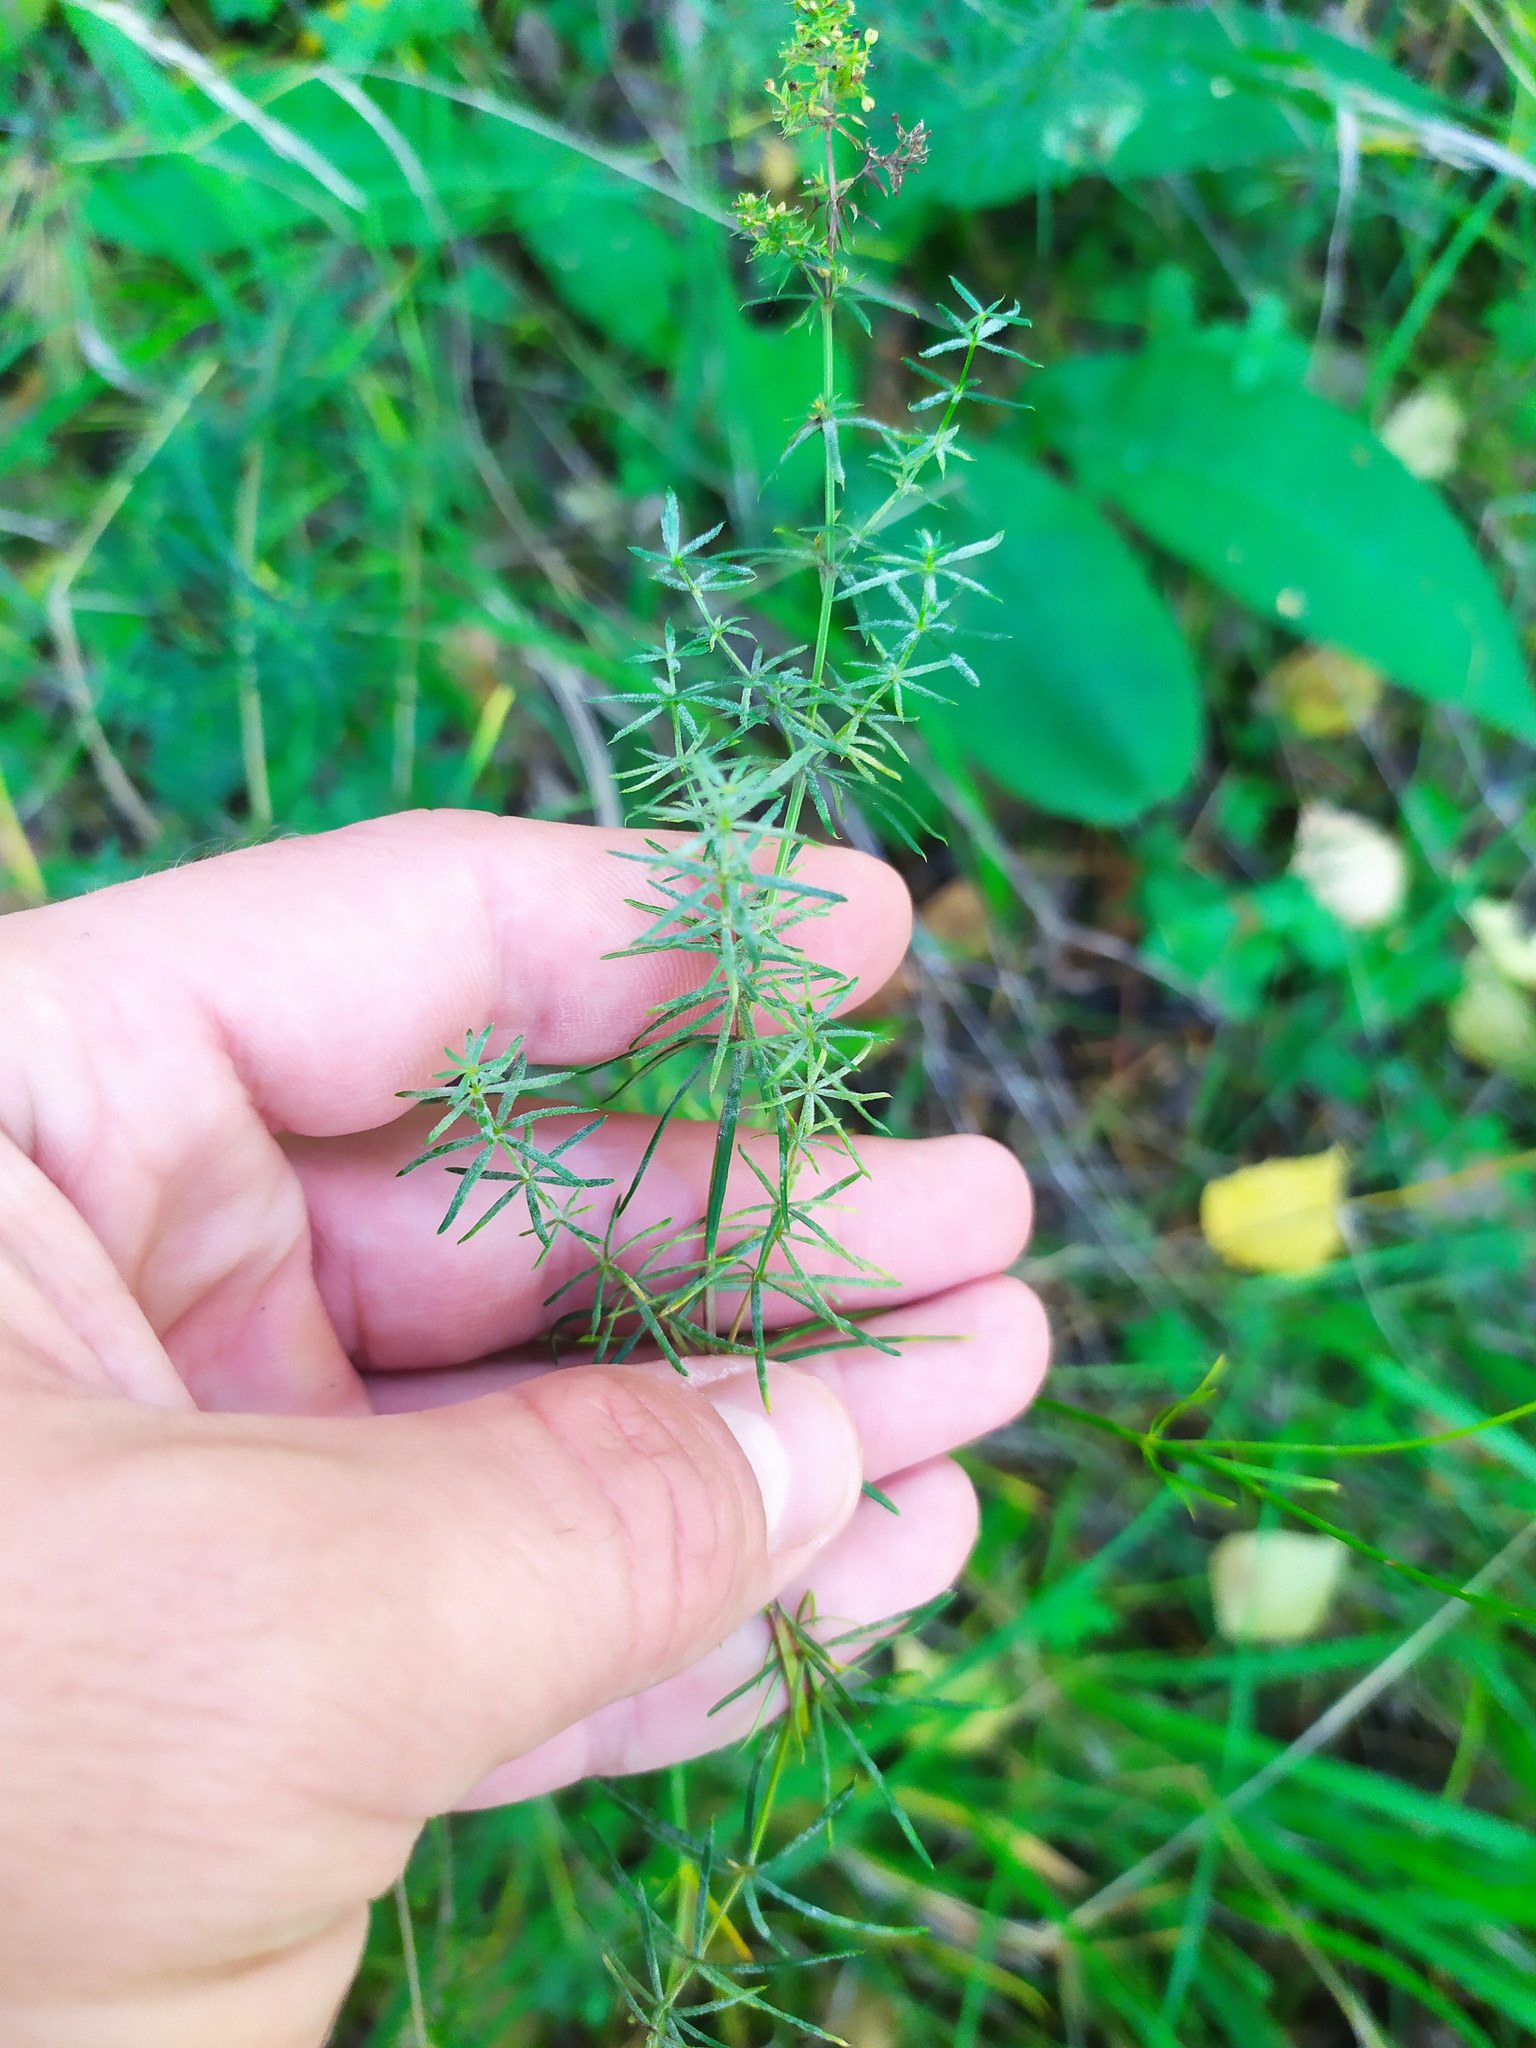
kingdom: Plantae
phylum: Tracheophyta
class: Magnoliopsida
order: Gentianales
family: Rubiaceae
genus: Galium
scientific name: Galium verum
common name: Lady's bedstraw
